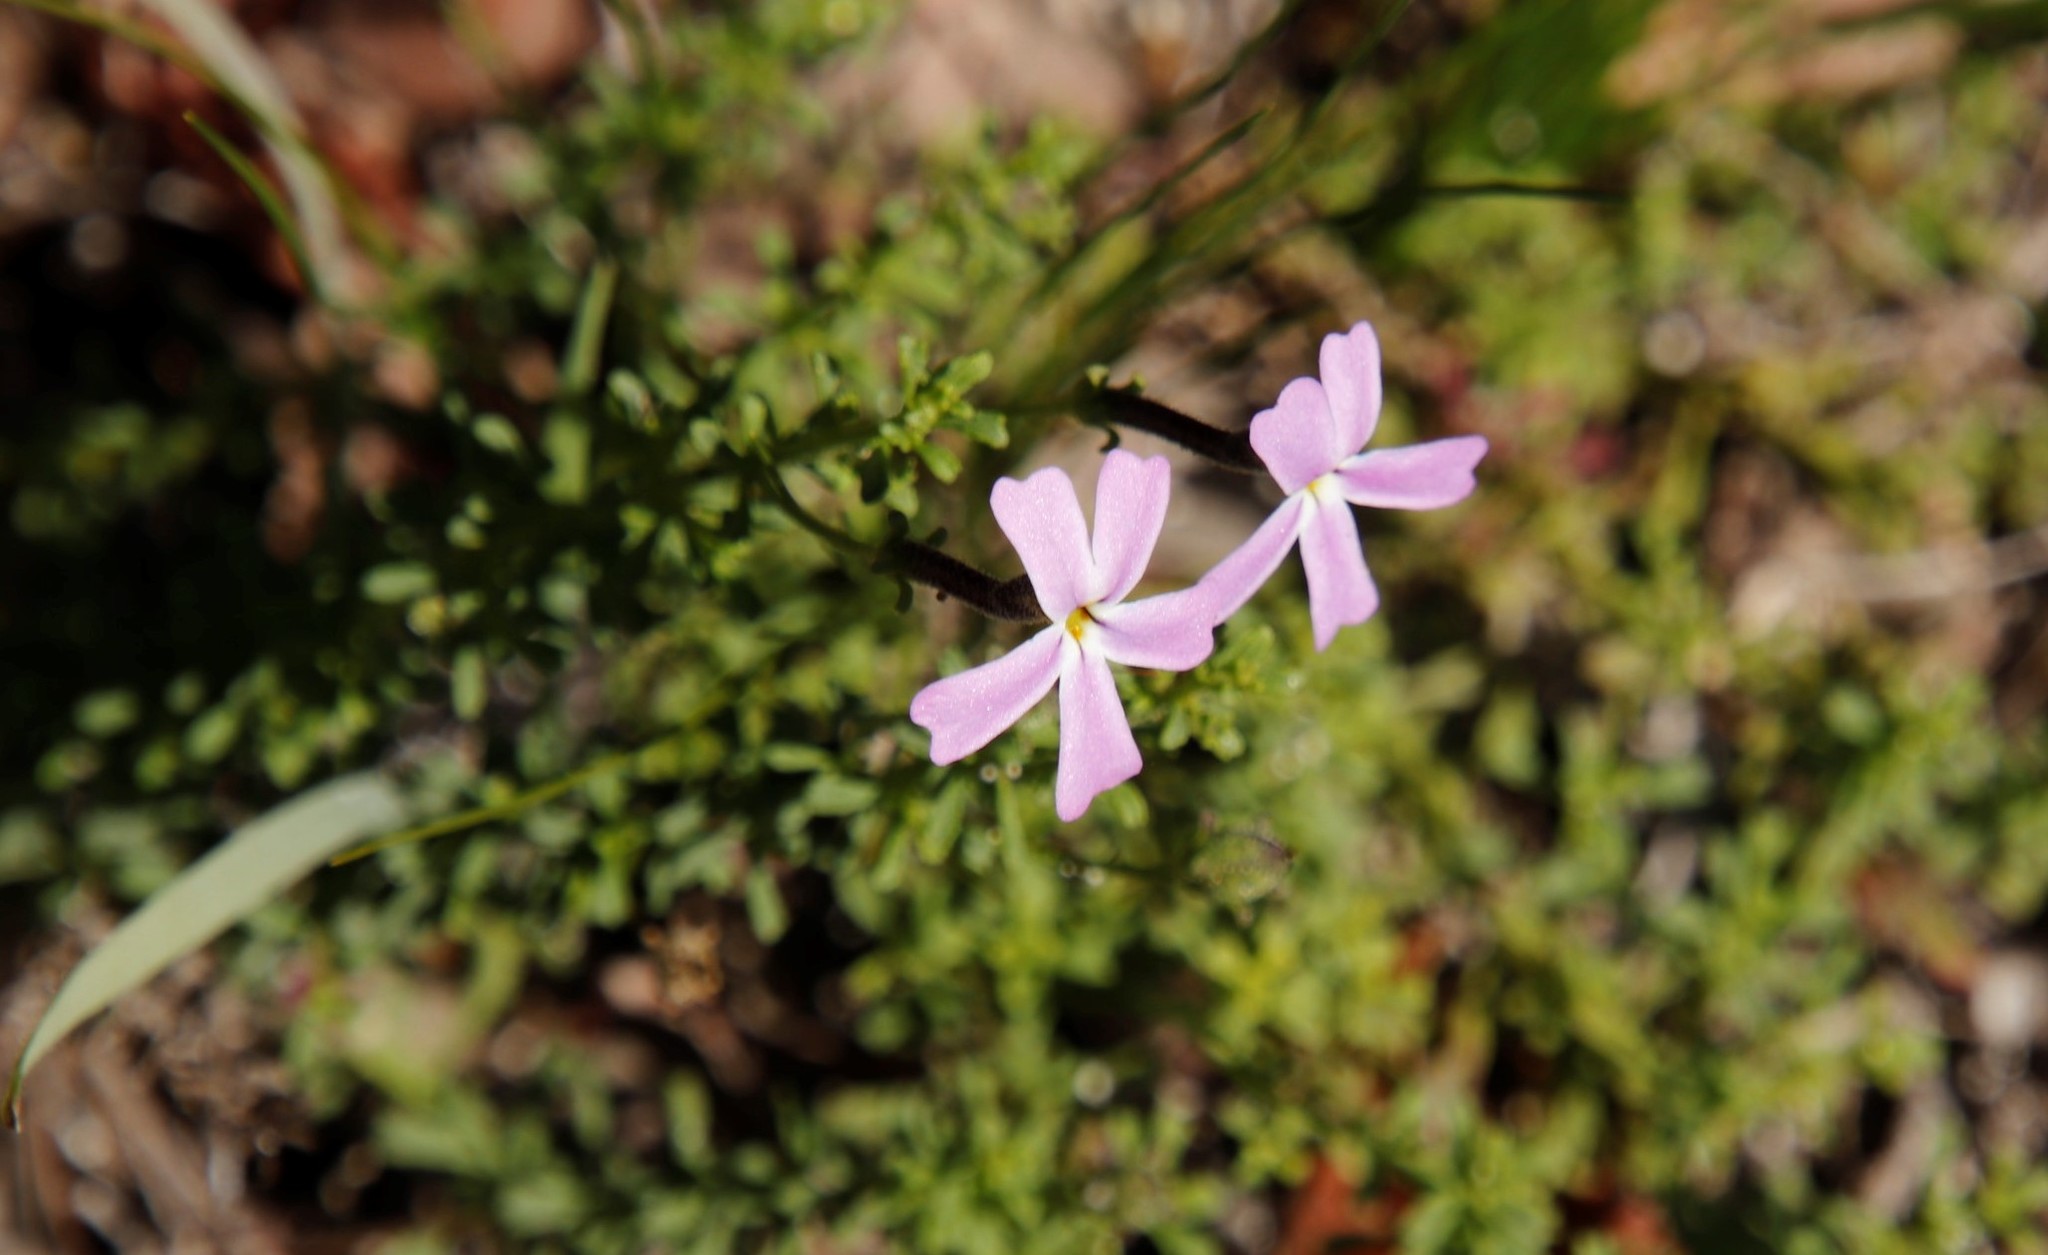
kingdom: Plantae
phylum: Tracheophyta
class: Magnoliopsida
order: Lamiales
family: Scrophulariaceae
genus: Jamesbrittenia
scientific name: Jamesbrittenia stellata
